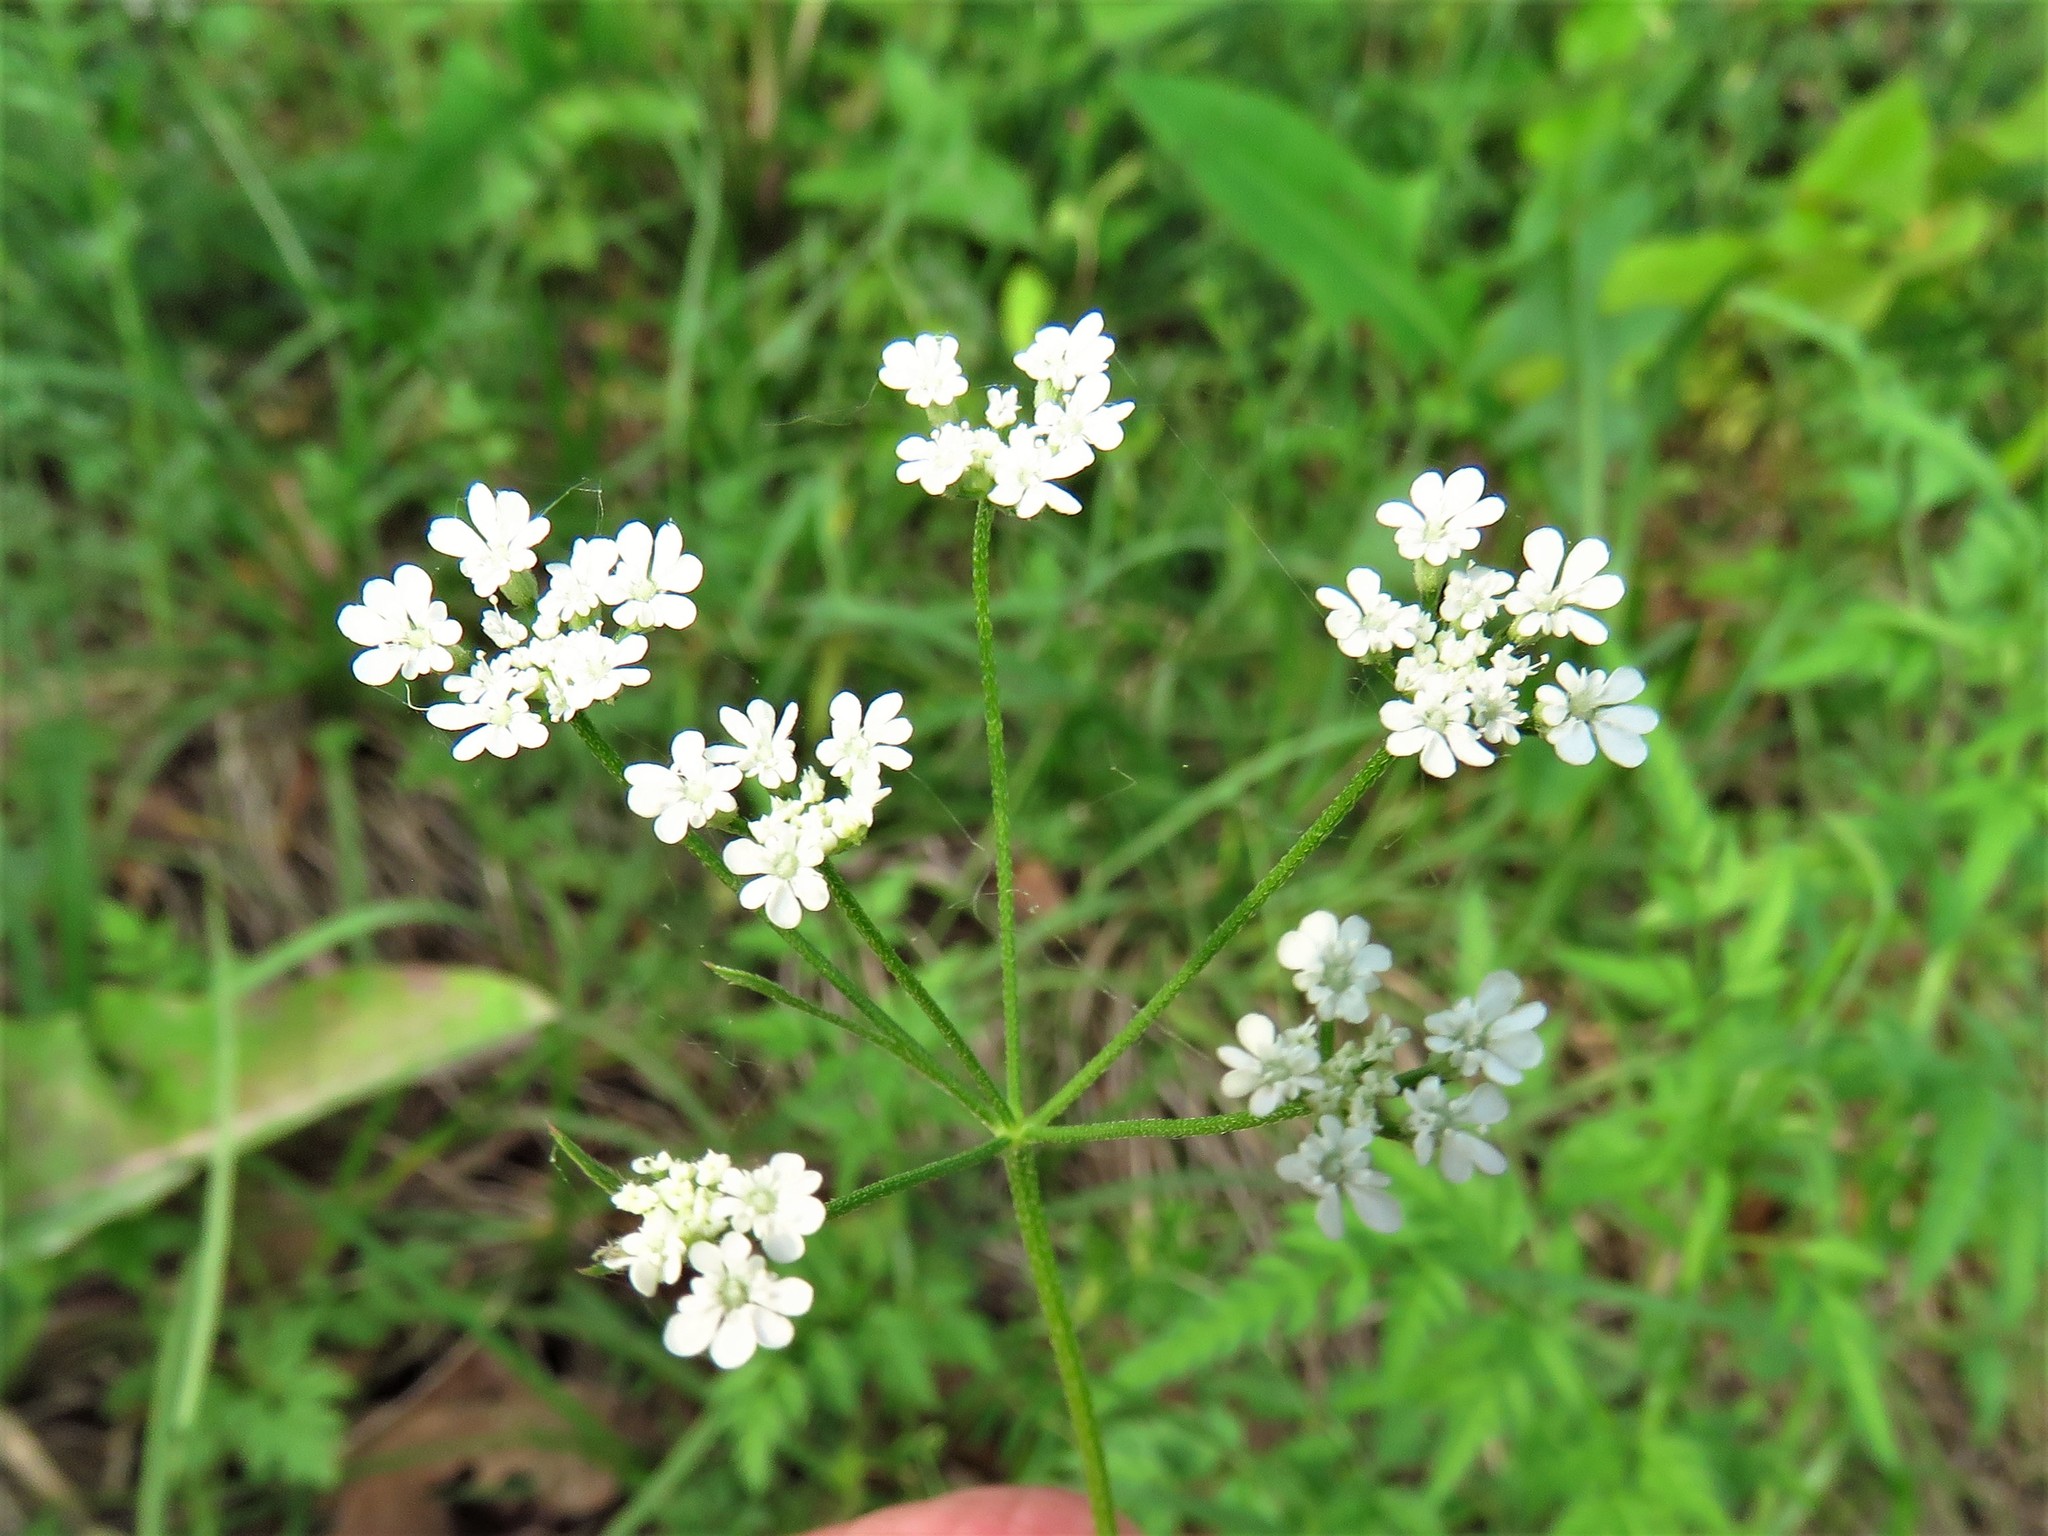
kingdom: Plantae
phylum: Tracheophyta
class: Magnoliopsida
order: Apiales
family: Apiaceae
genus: Torilis
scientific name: Torilis arvensis
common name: Spreading hedge-parsley
